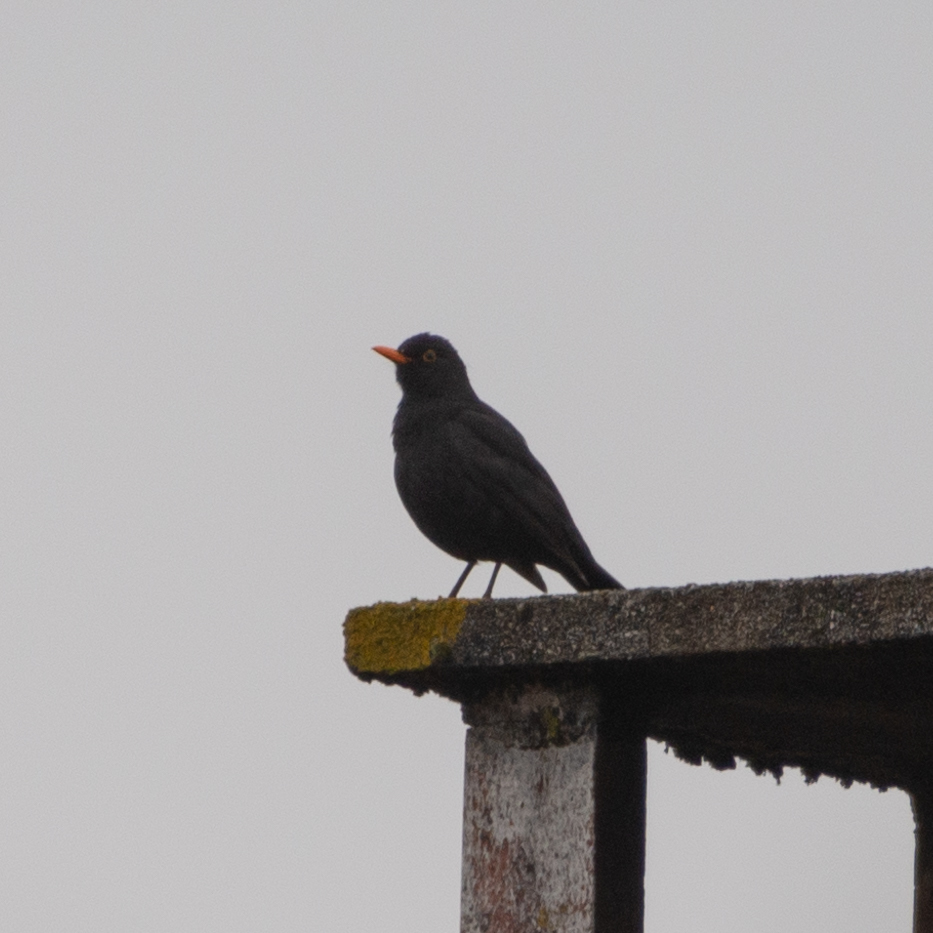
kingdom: Animalia
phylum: Chordata
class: Aves
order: Passeriformes
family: Turdidae
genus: Turdus
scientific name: Turdus merula
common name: Common blackbird
